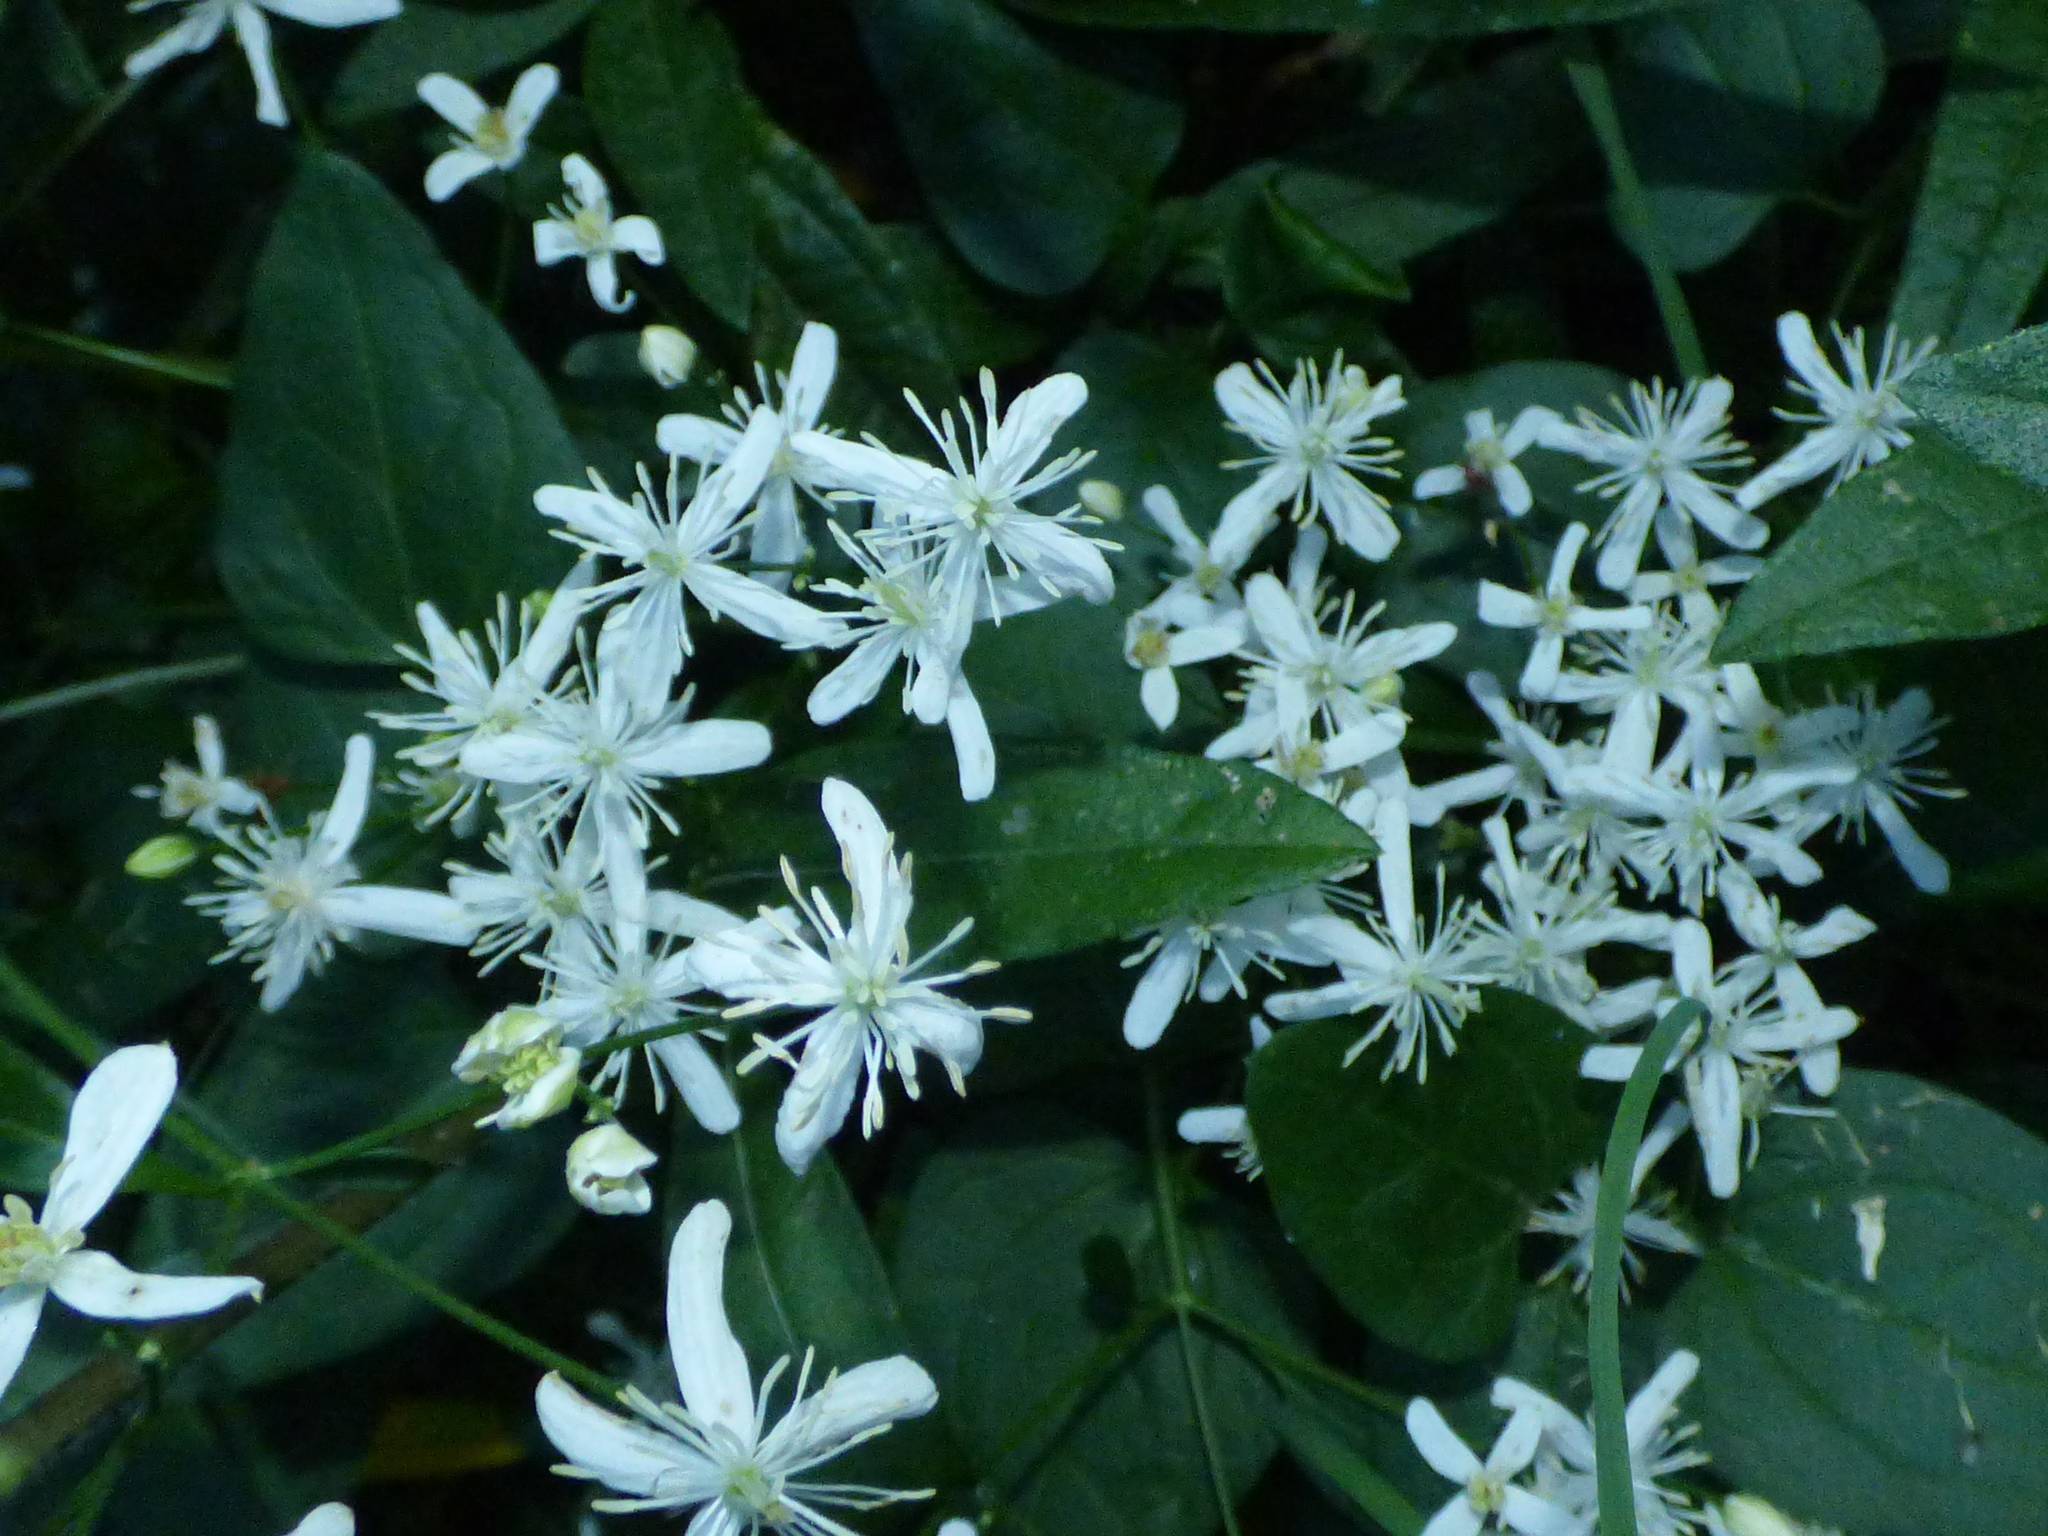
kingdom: Plantae
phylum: Tracheophyta
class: Magnoliopsida
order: Ranunculales
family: Ranunculaceae
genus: Clematis
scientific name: Clematis terniflora
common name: Sweet autumn clematis
